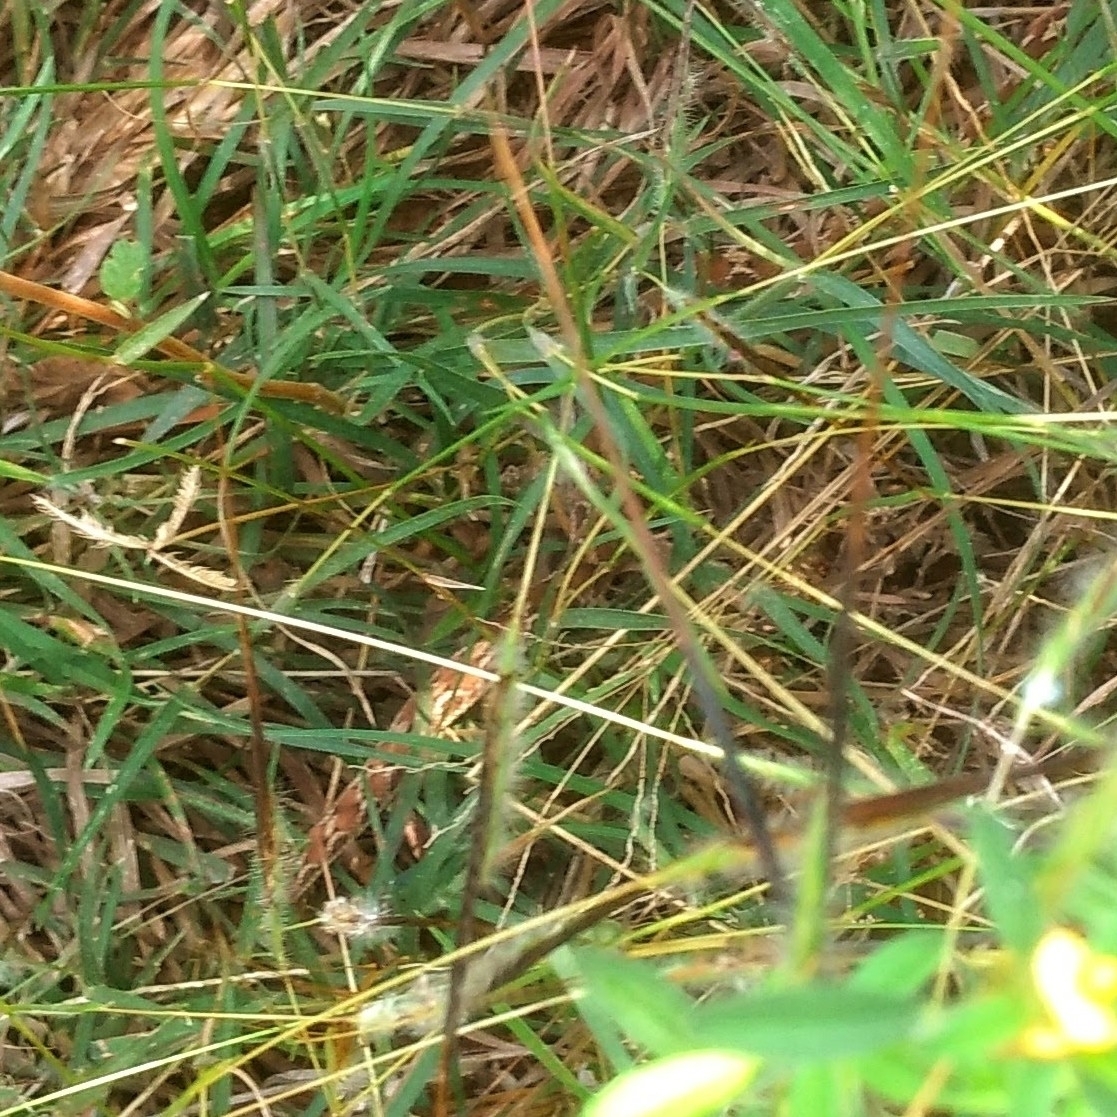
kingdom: Animalia
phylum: Chordata
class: Squamata
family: Viperidae
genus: Echis
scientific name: Echis carinatus
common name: Saw-scaled viper
